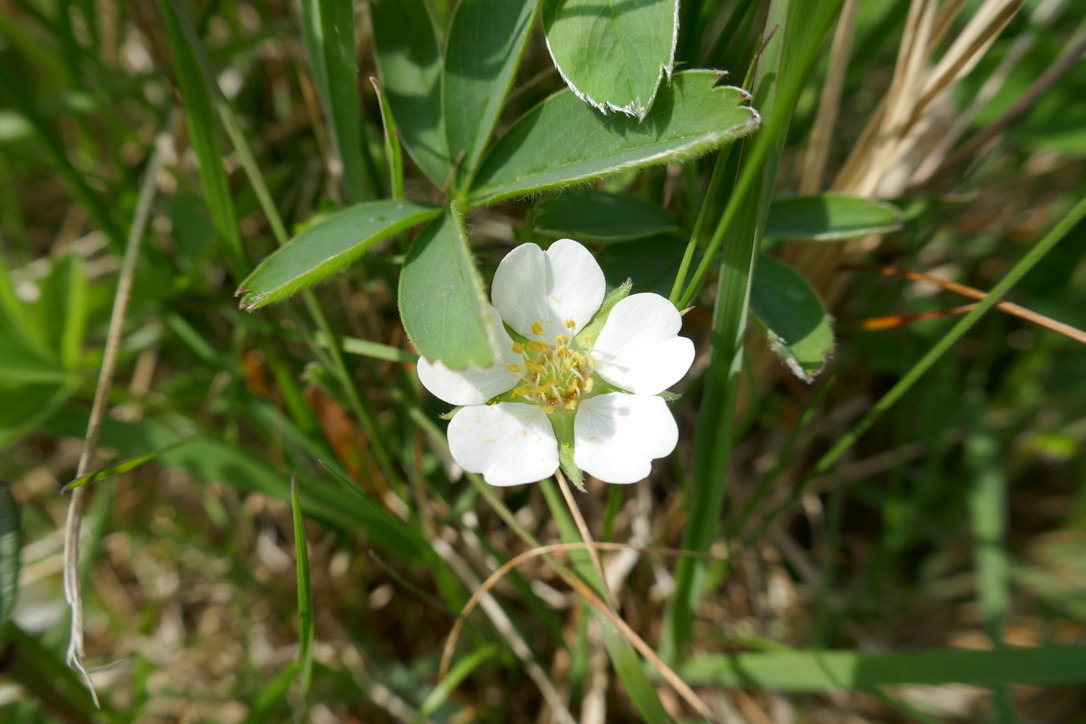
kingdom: Plantae
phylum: Tracheophyta
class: Magnoliopsida
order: Rosales
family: Rosaceae
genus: Potentilla
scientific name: Potentilla alba
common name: White cinquefoil
